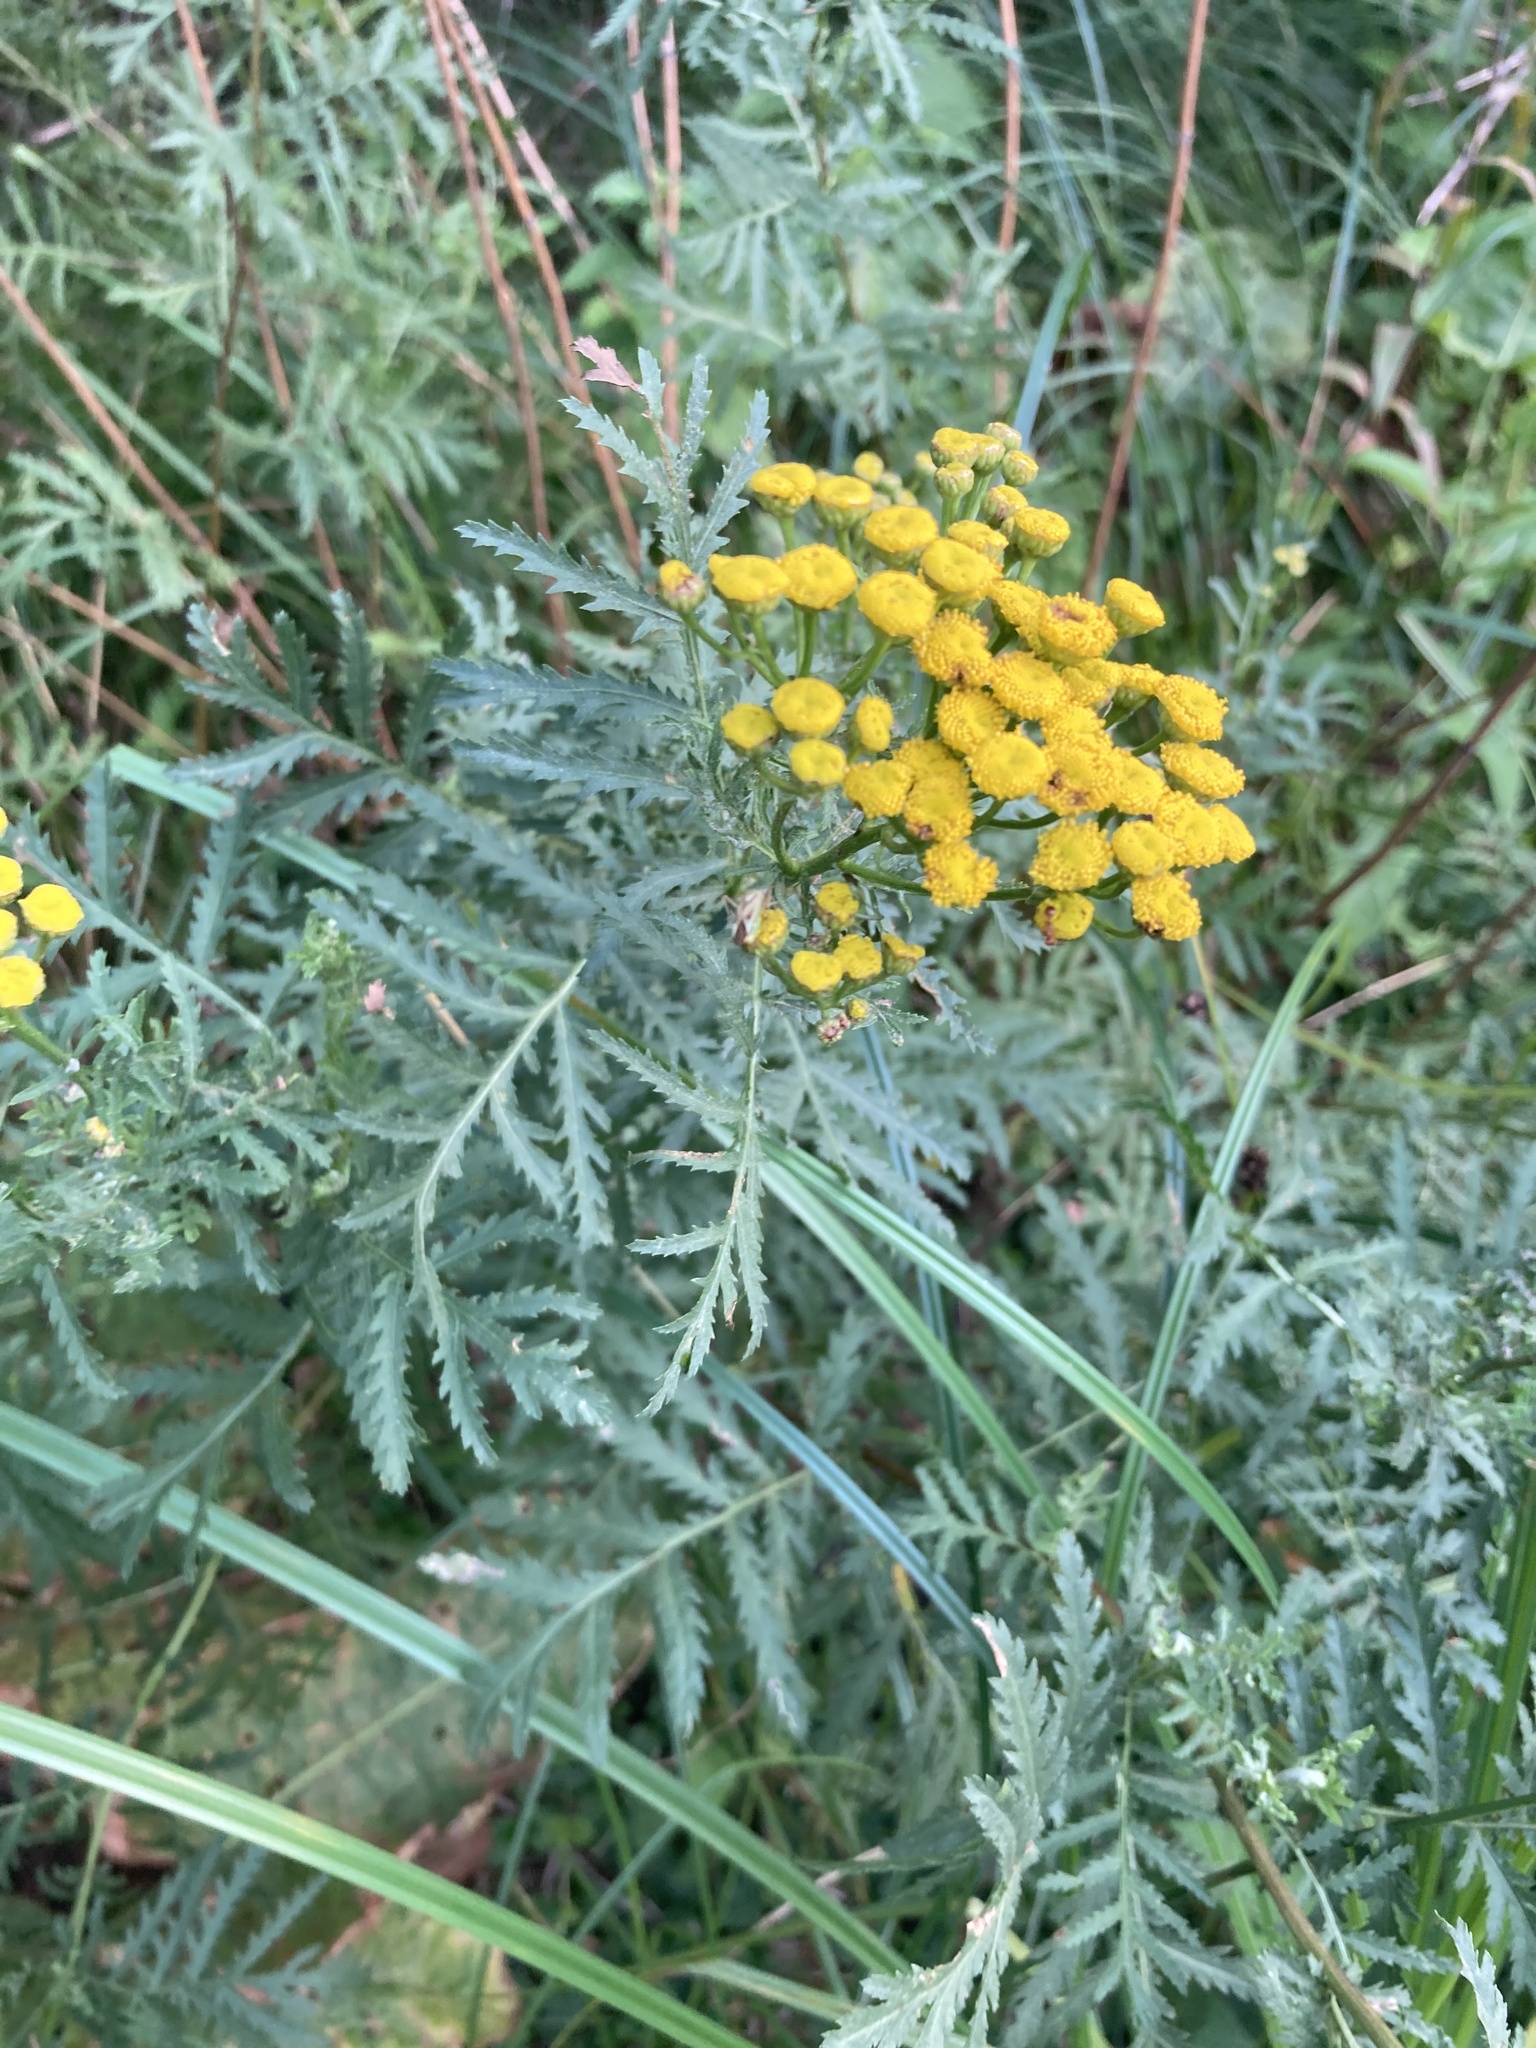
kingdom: Plantae
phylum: Tracheophyta
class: Magnoliopsida
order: Asterales
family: Asteraceae
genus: Tanacetum
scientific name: Tanacetum vulgare
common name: Common tansy
